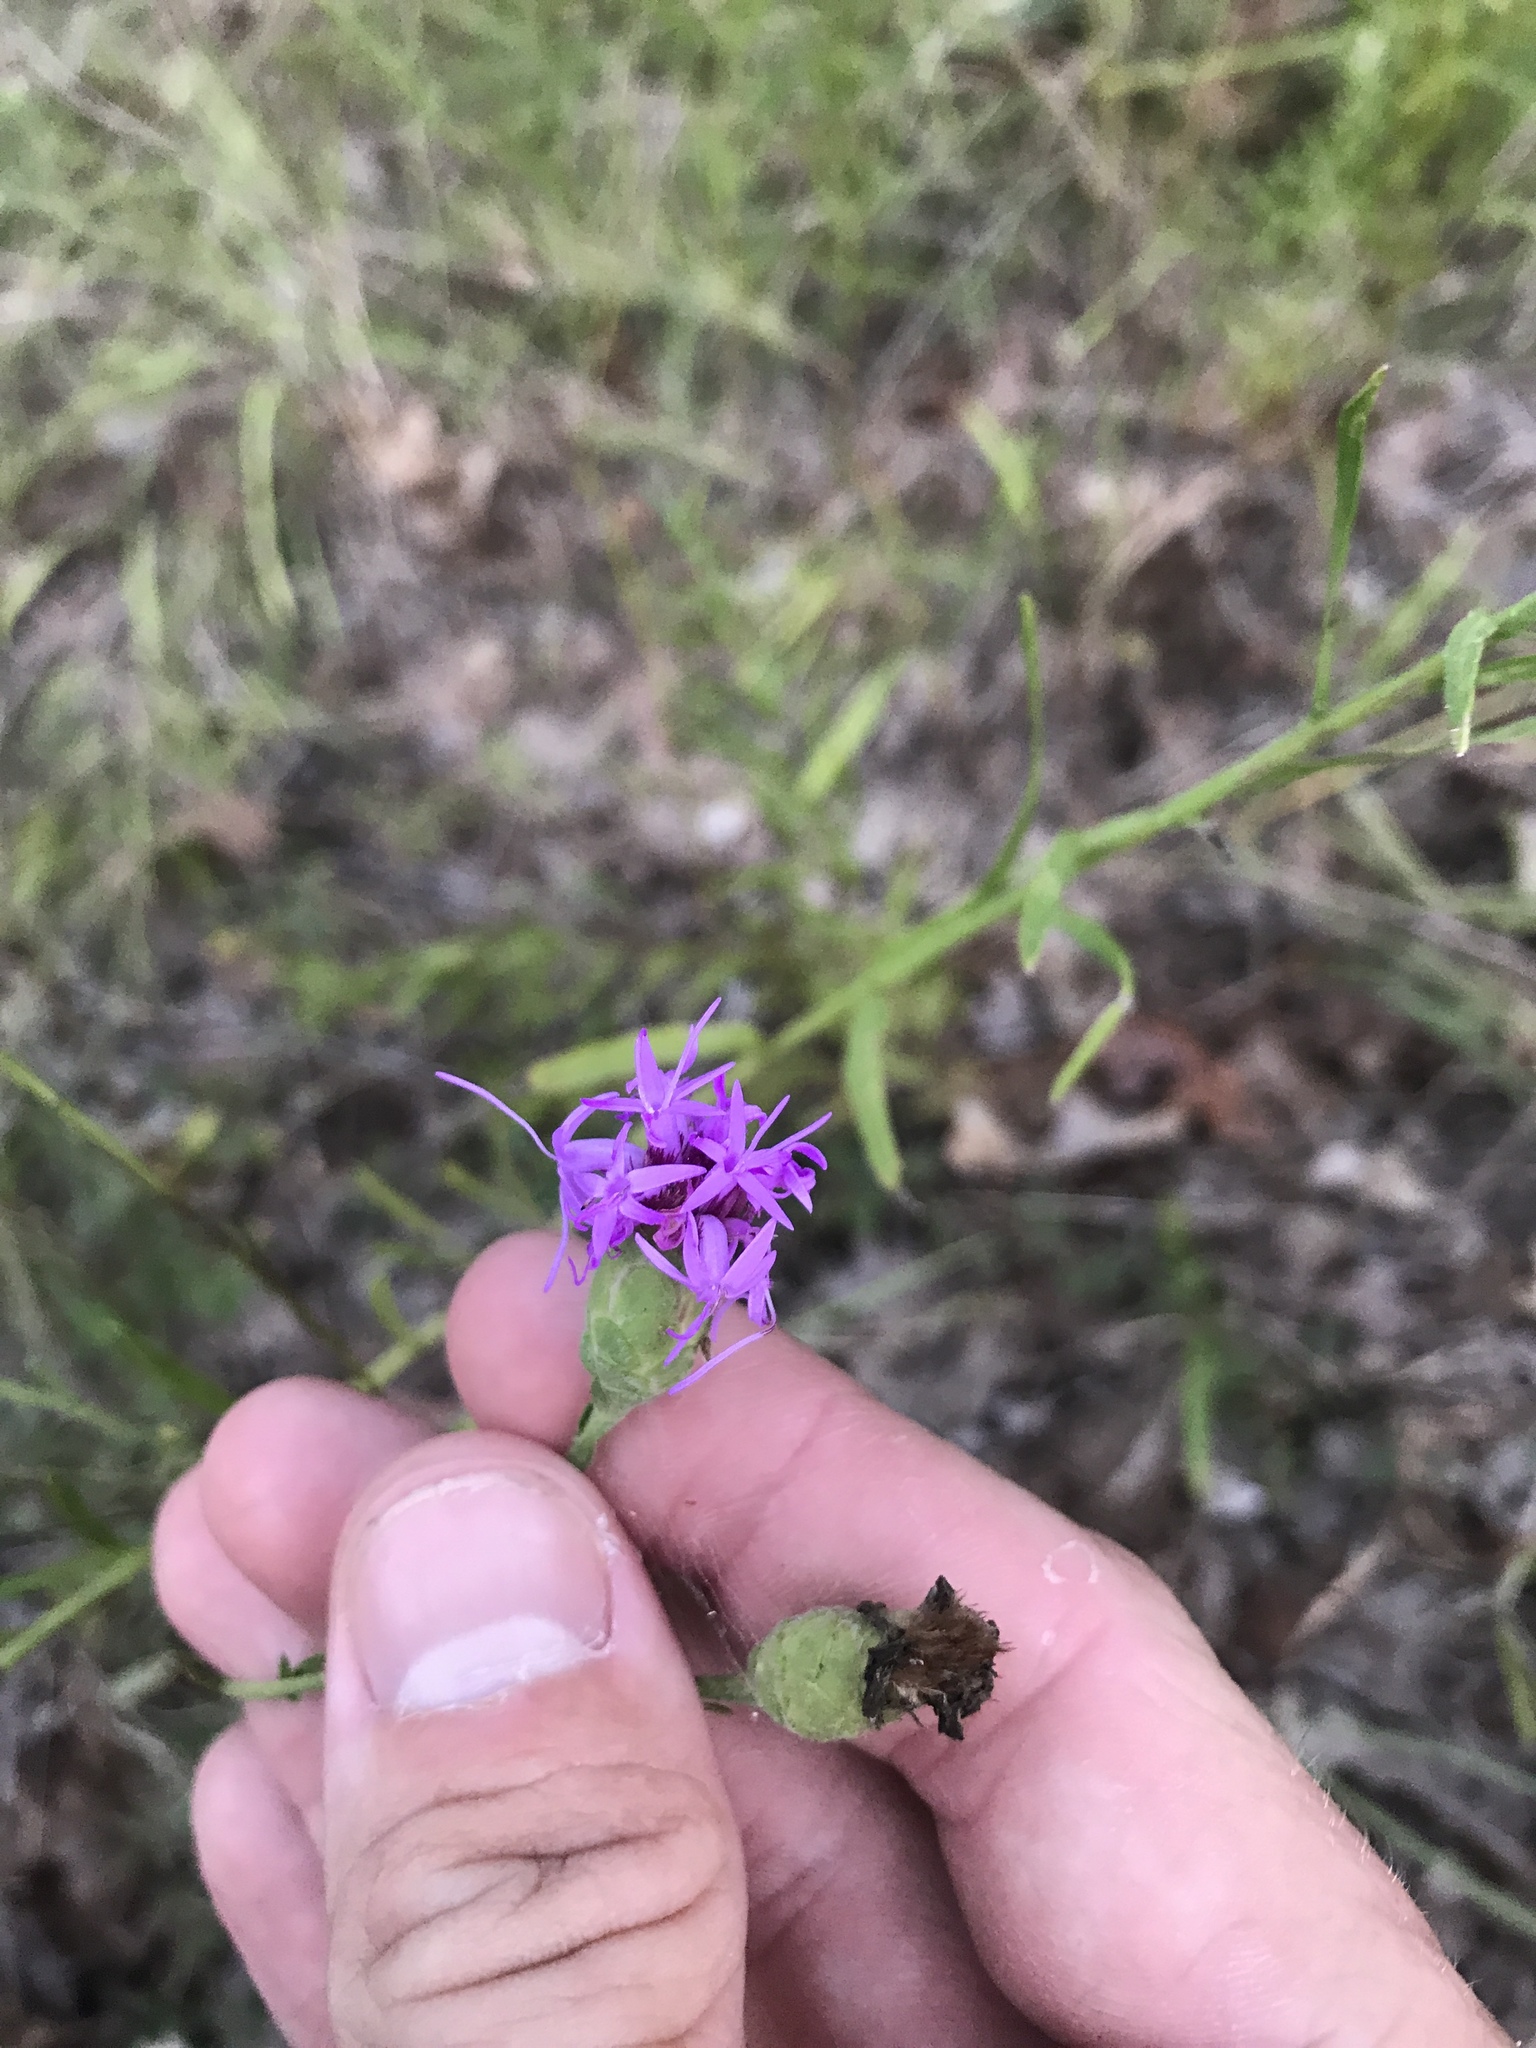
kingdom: Plantae
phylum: Tracheophyta
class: Magnoliopsida
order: Asterales
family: Asteraceae
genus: Liatris
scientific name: Liatris cymosa
